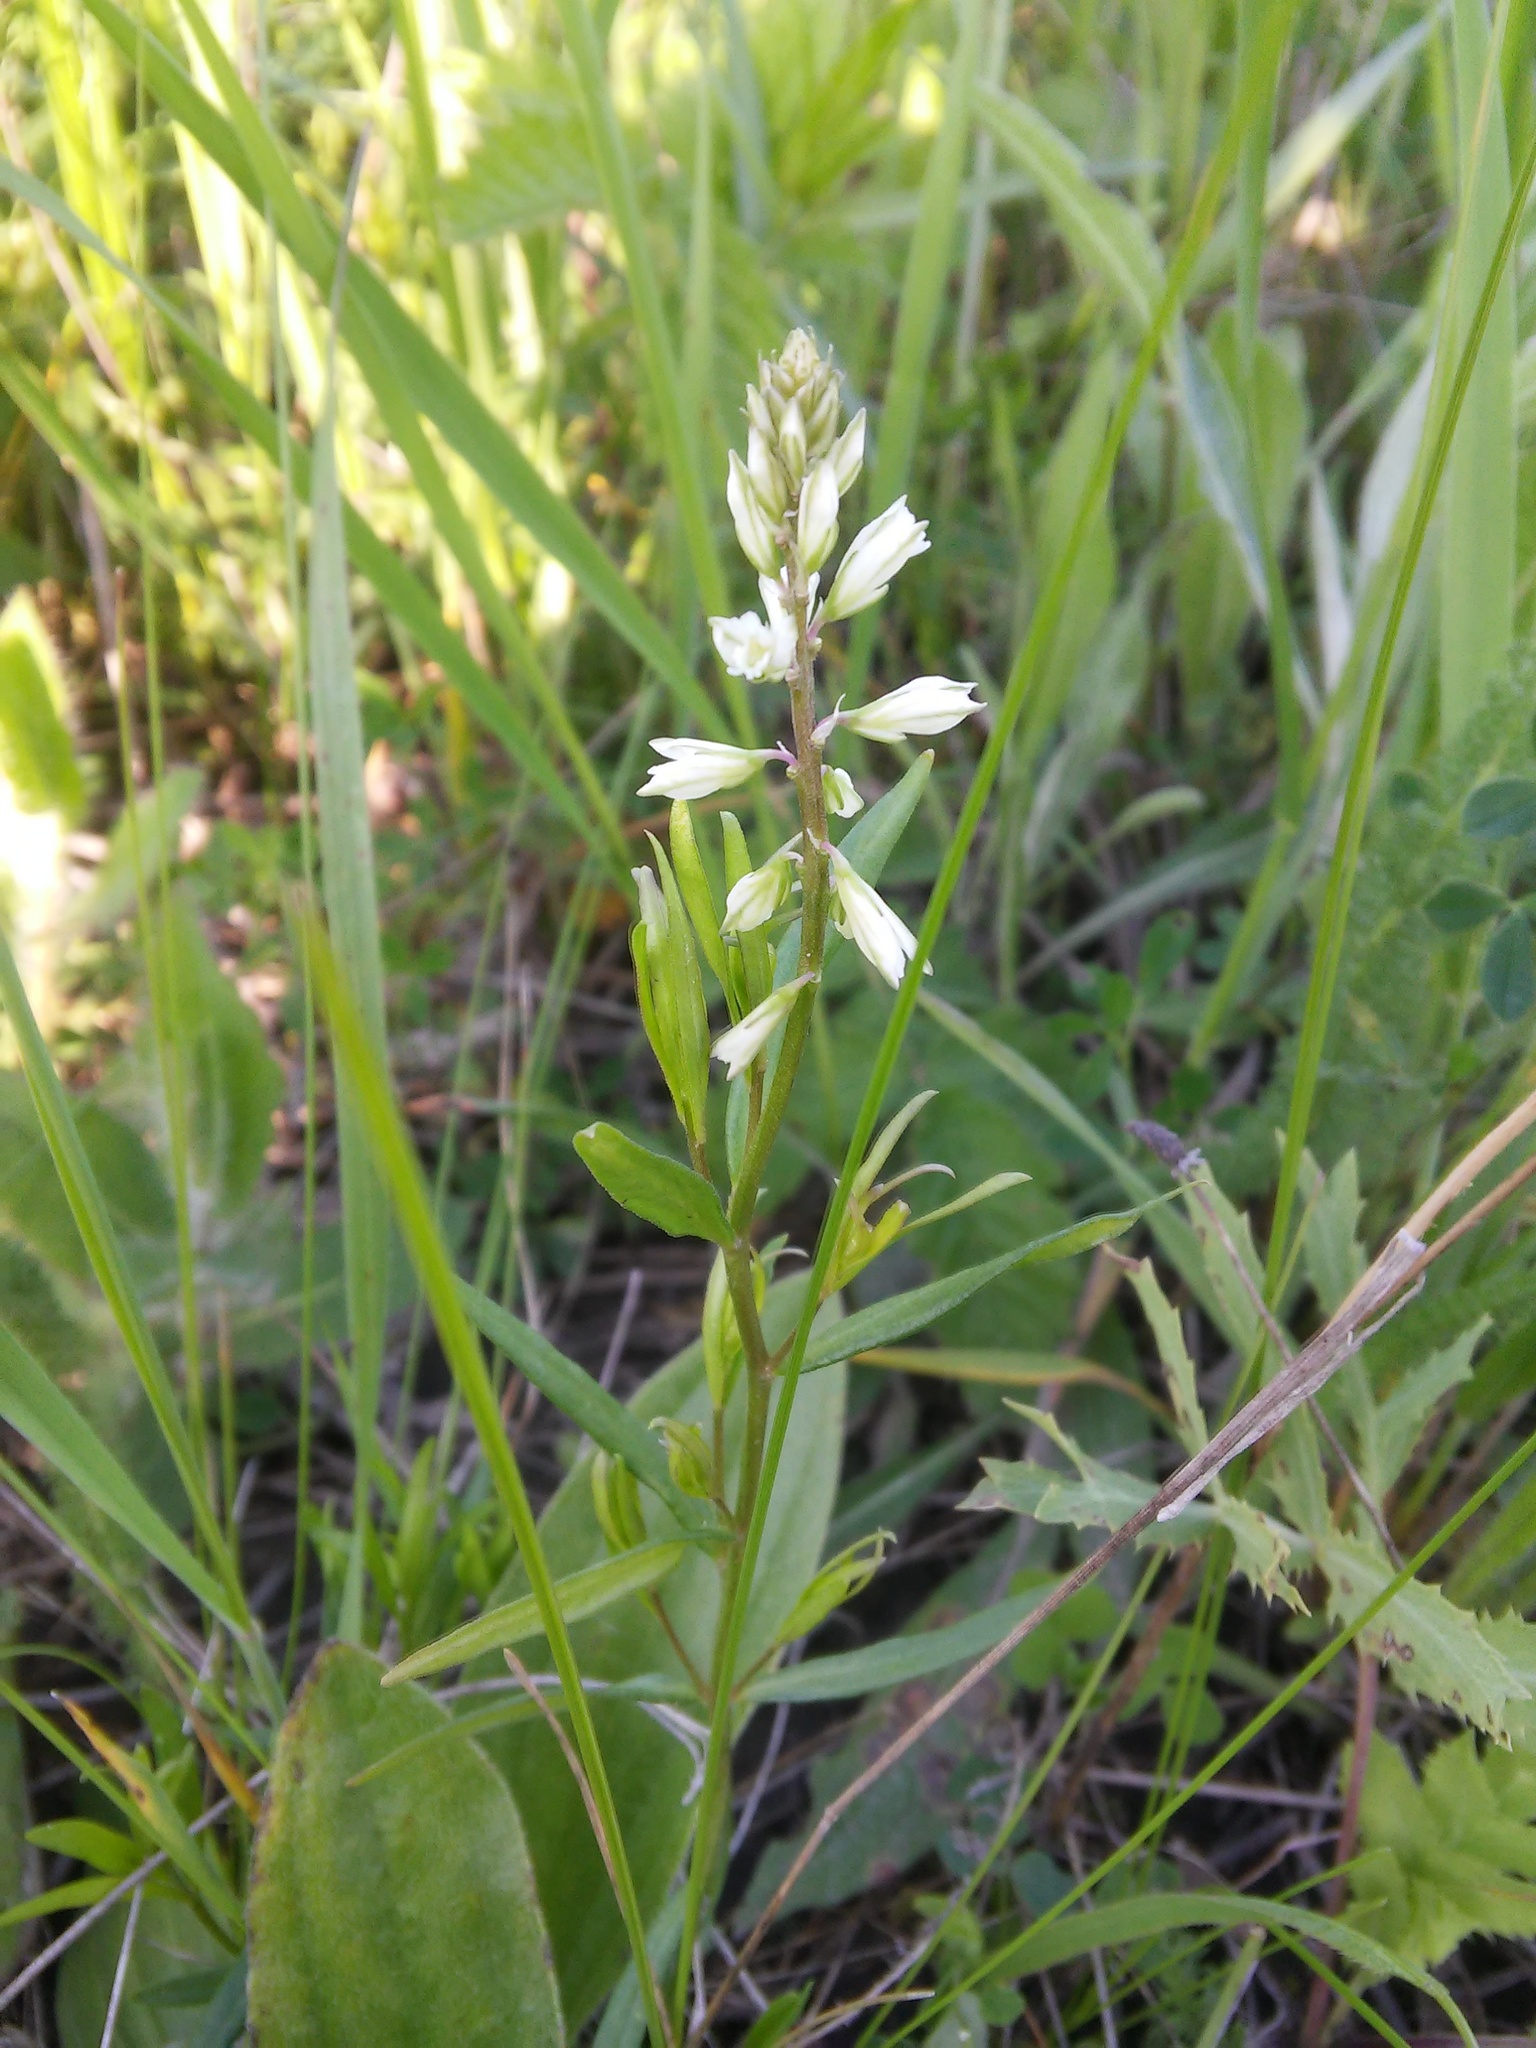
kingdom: Plantae
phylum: Tracheophyta
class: Magnoliopsida
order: Fabales
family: Polygalaceae
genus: Polygala
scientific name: Polygala comosa
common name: Tufted milkwort
